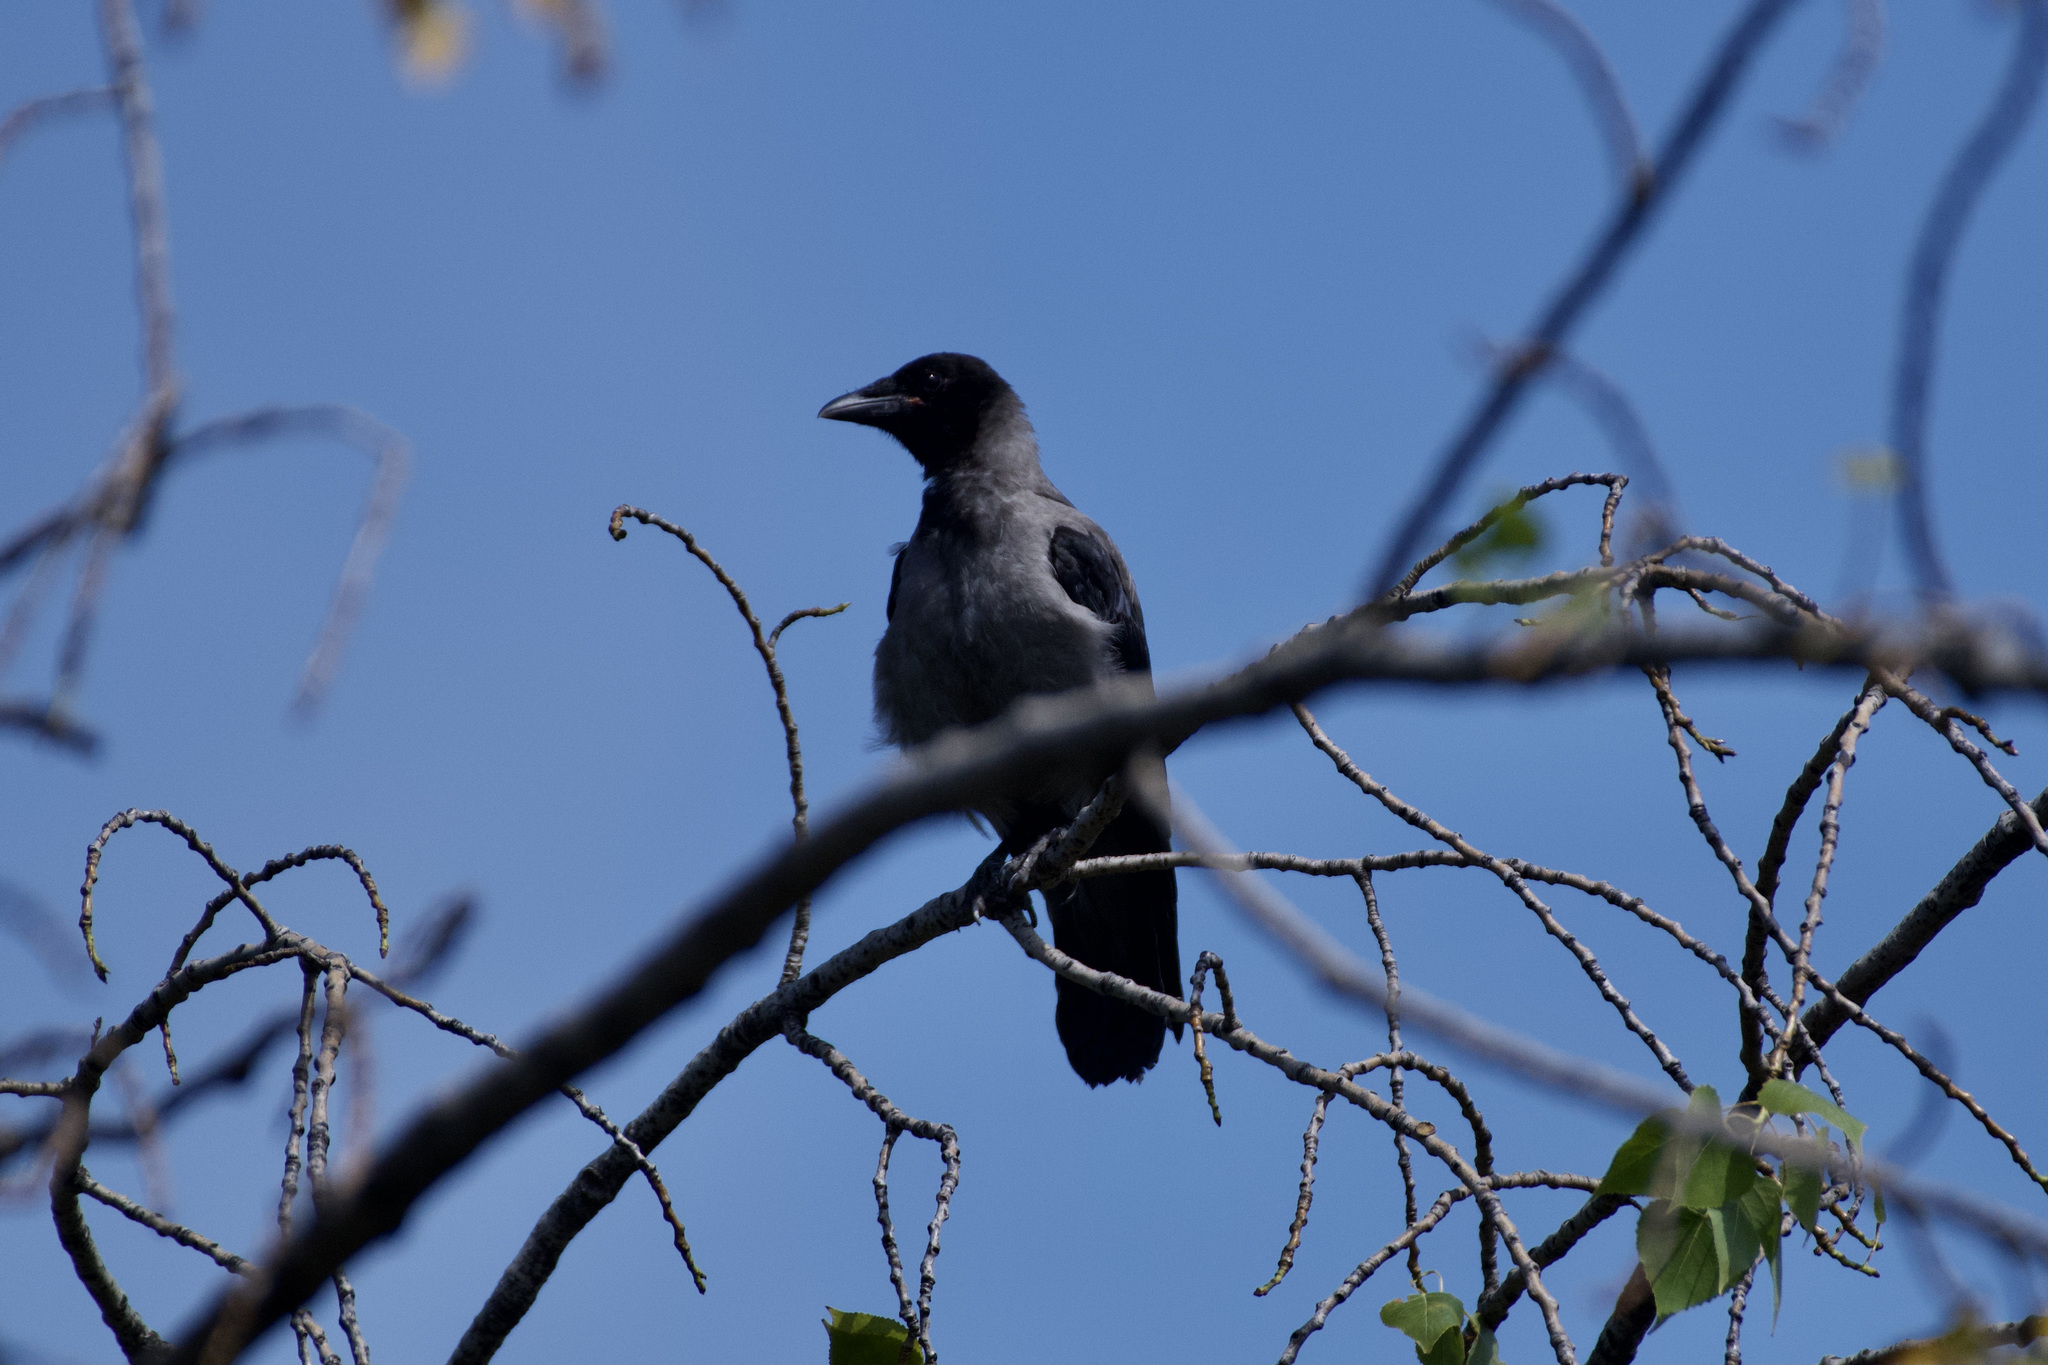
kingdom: Animalia
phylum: Chordata
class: Aves
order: Passeriformes
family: Corvidae
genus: Corvus
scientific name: Corvus cornix
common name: Hooded crow
